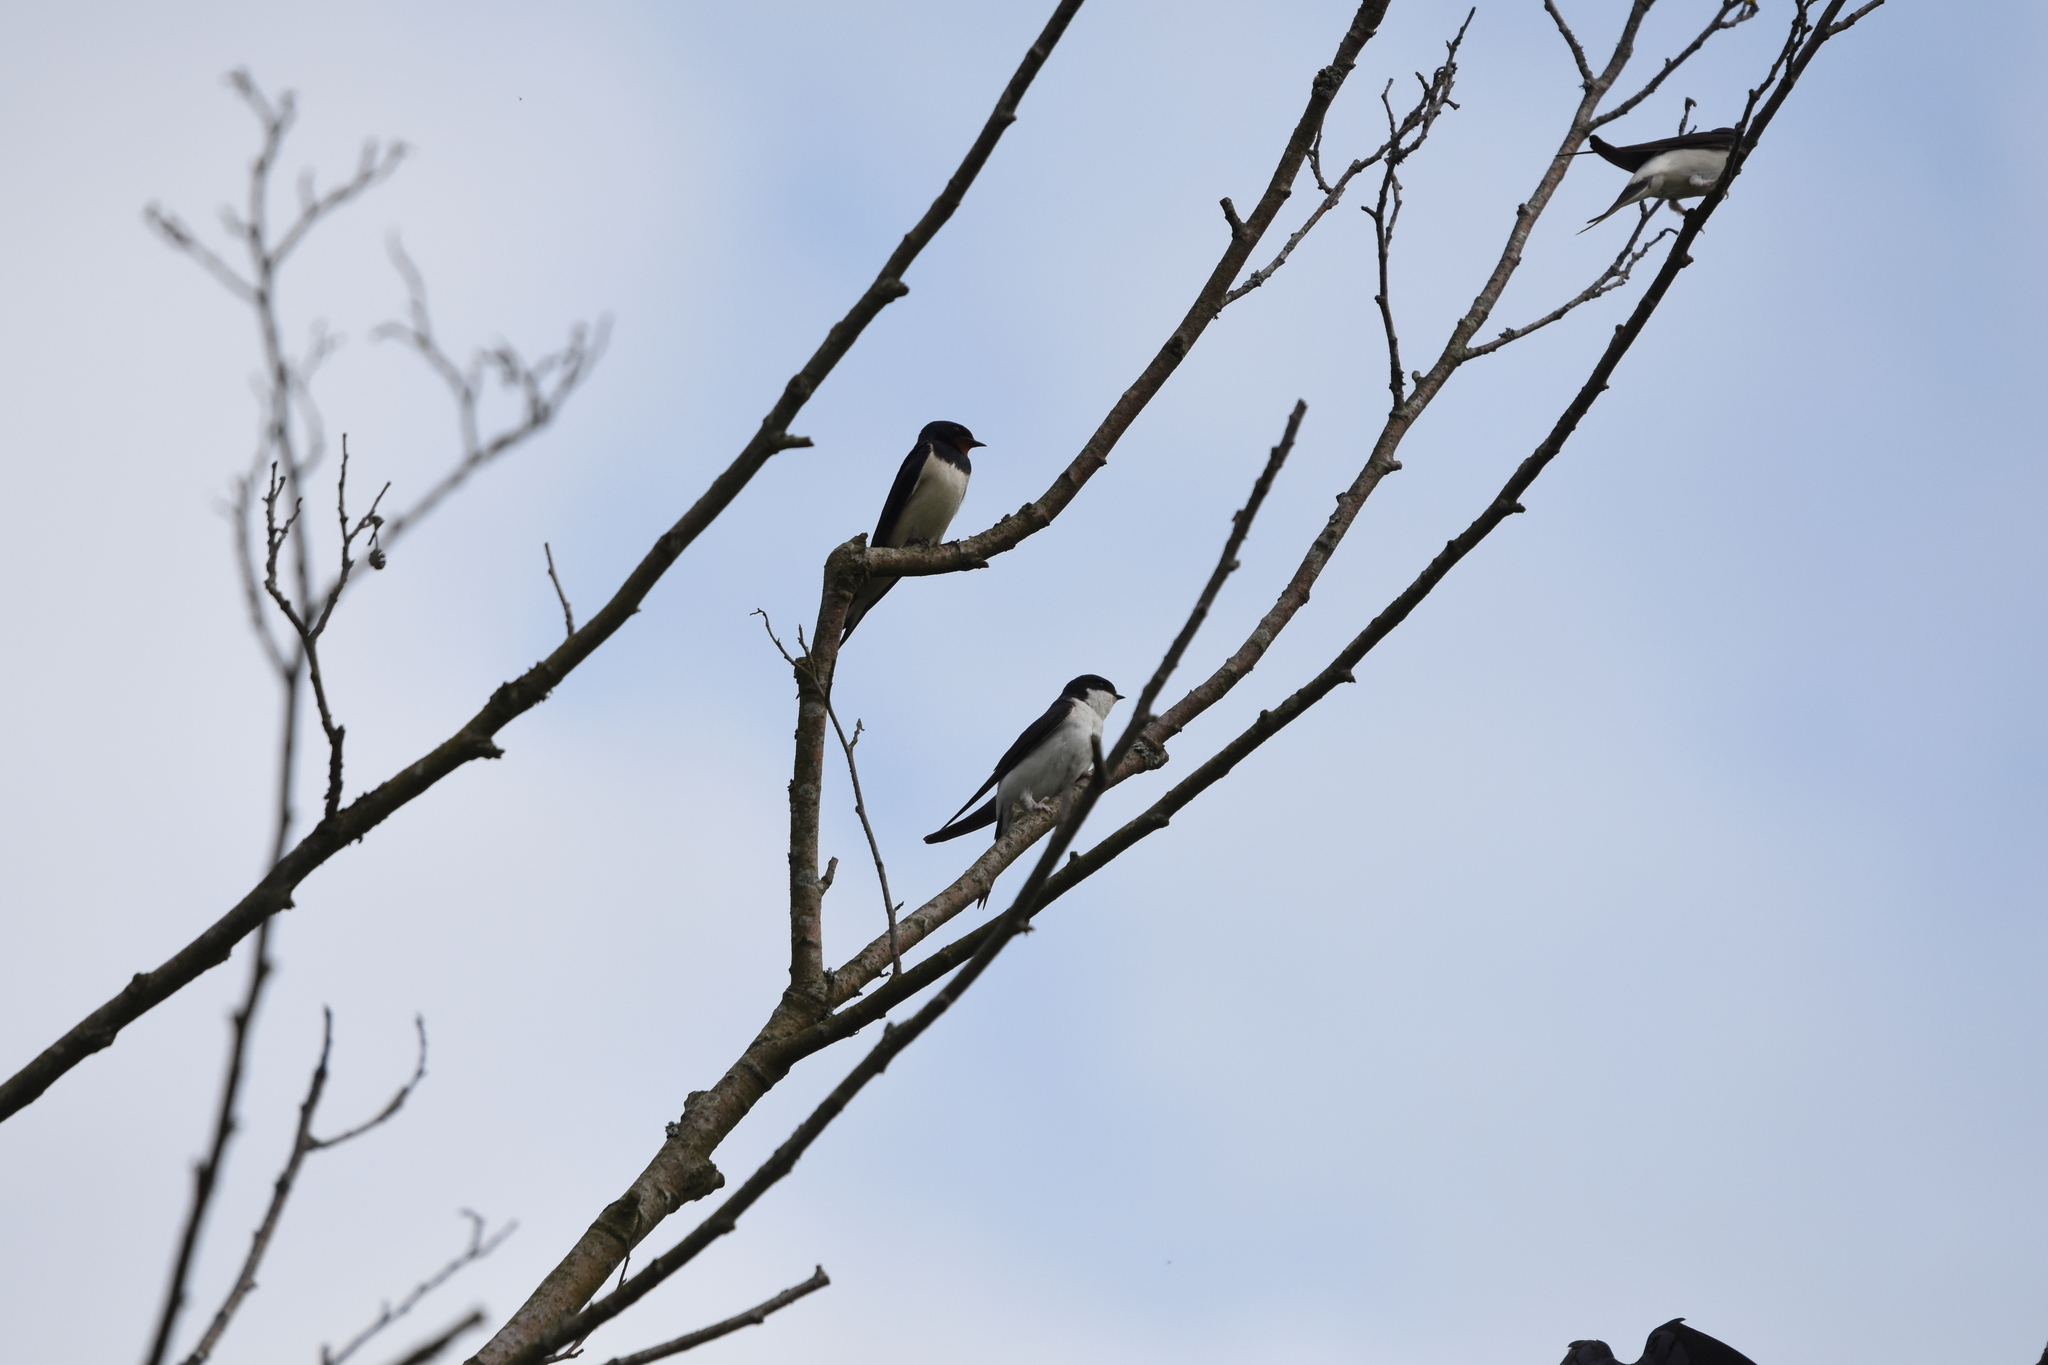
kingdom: Animalia
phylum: Chordata
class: Aves
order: Passeriformes
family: Hirundinidae
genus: Delichon
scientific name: Delichon urbicum
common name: Common house martin
